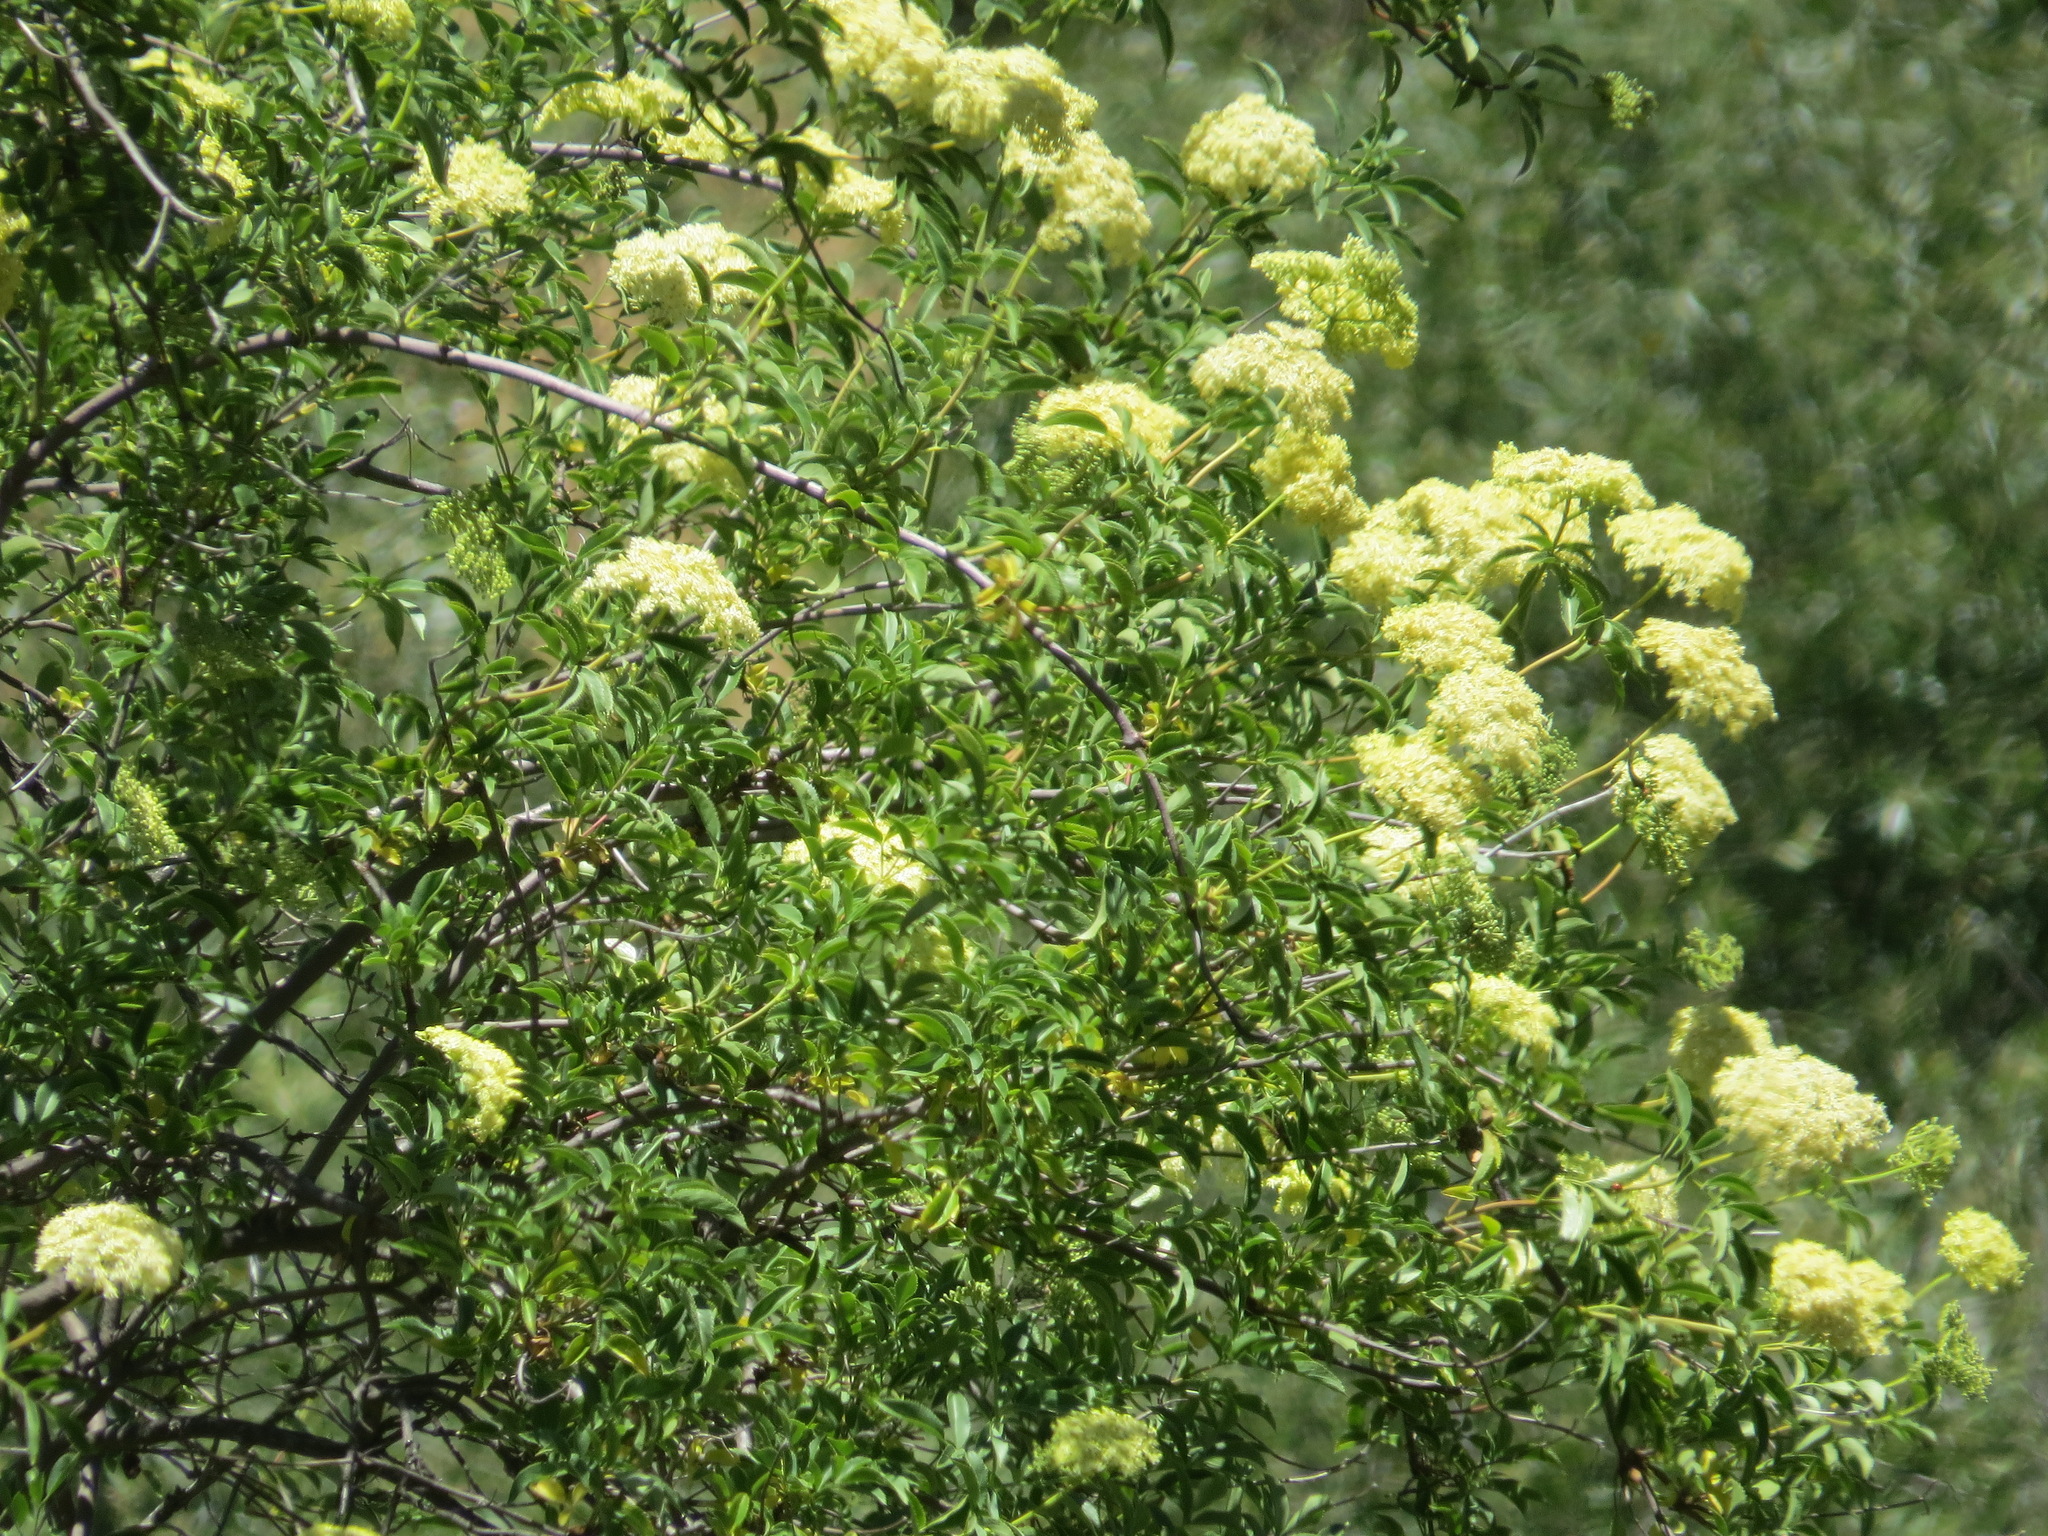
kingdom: Plantae
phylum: Tracheophyta
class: Magnoliopsida
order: Dipsacales
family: Viburnaceae
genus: Sambucus
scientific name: Sambucus cerulea
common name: Blue elder
